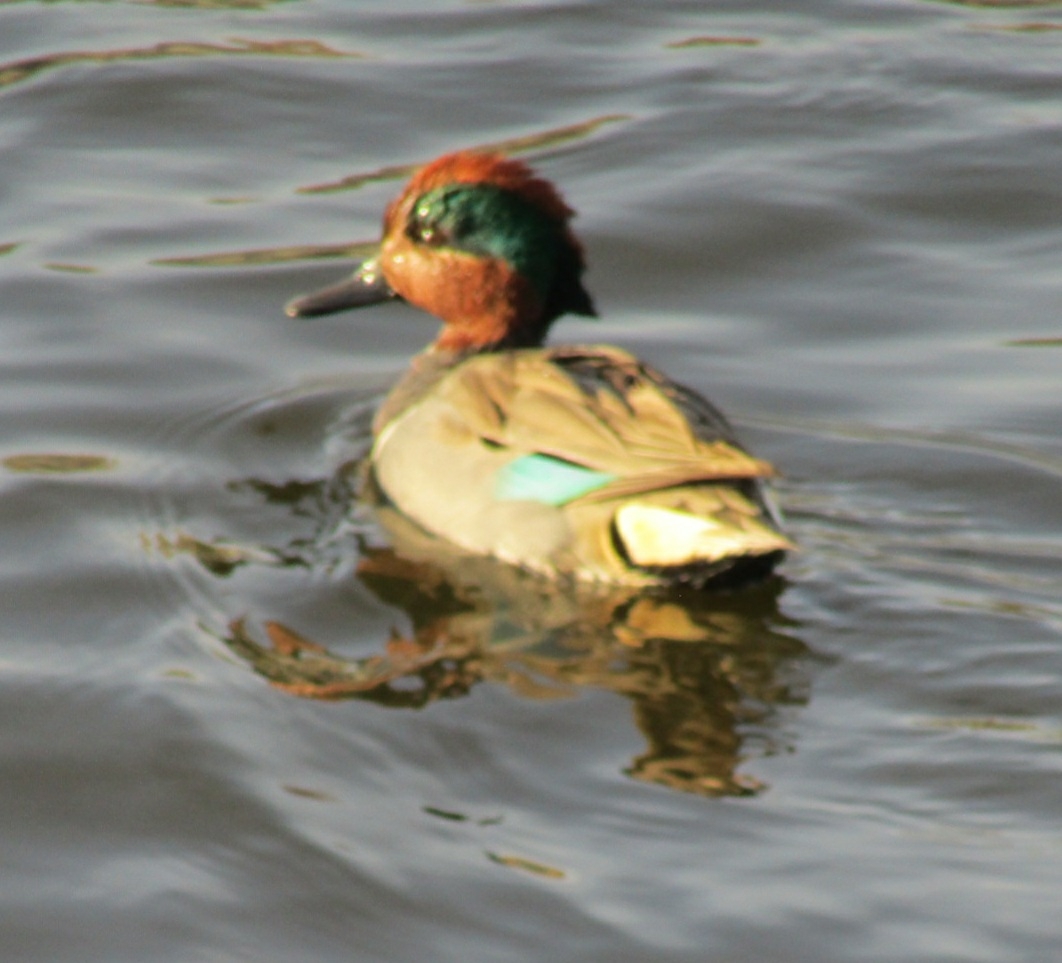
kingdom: Animalia
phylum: Chordata
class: Aves
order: Anseriformes
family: Anatidae
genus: Anas
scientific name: Anas crecca
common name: Eurasian teal
